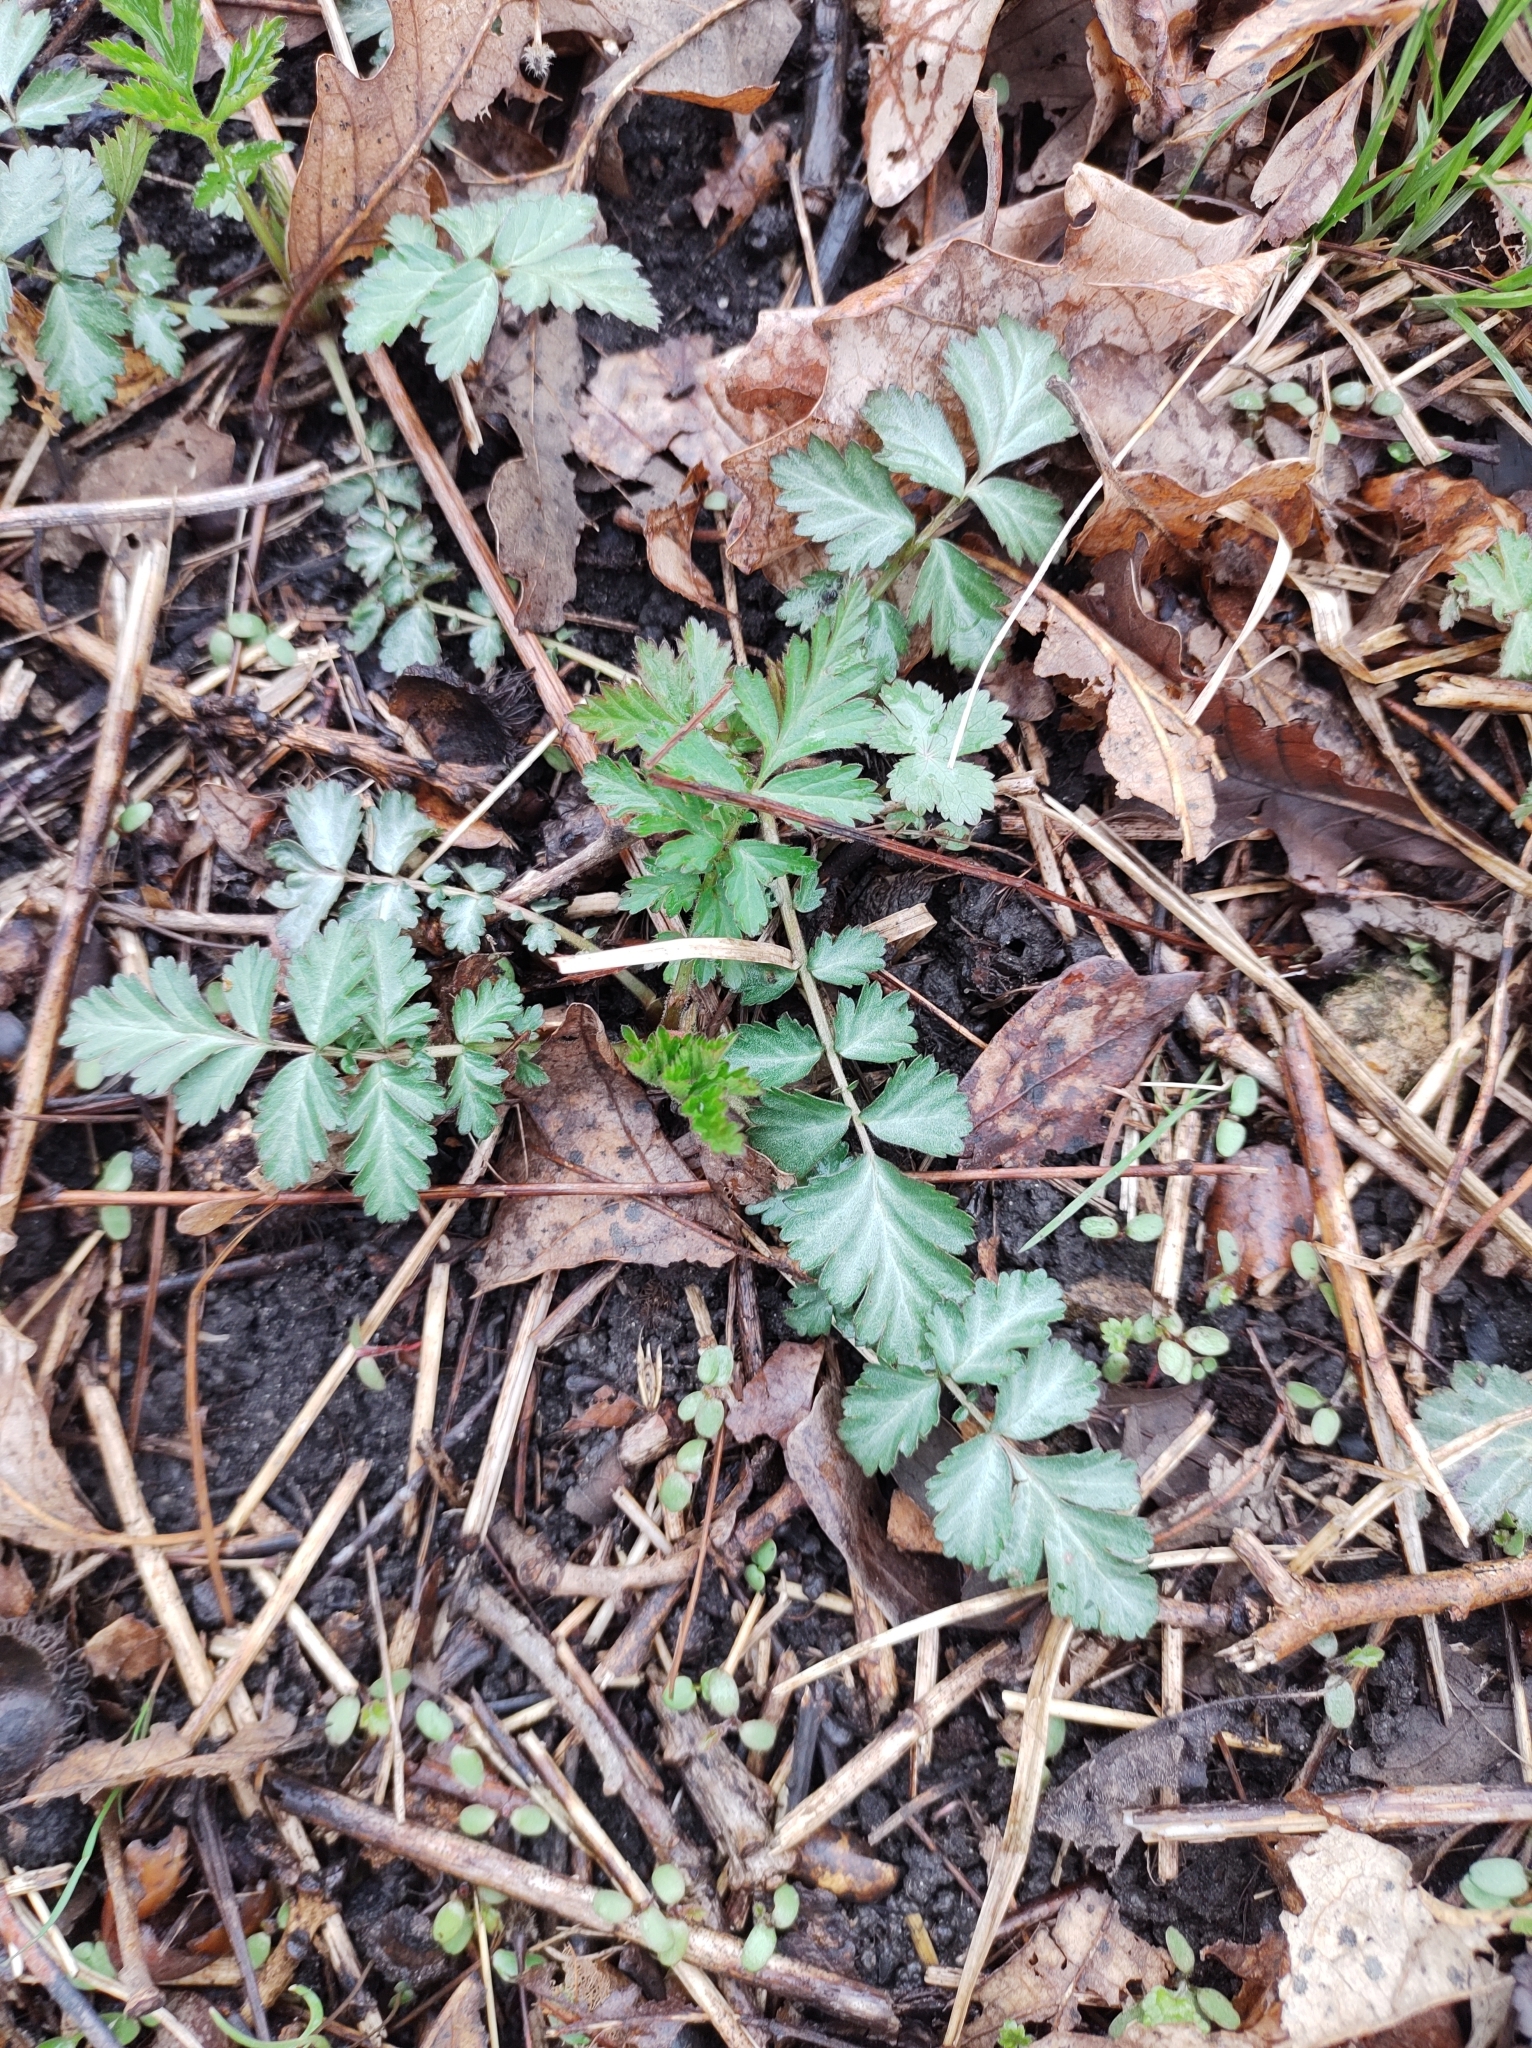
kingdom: Plantae
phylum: Tracheophyta
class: Magnoliopsida
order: Rosales
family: Rosaceae
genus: Geum
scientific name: Geum canadense
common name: White avens
